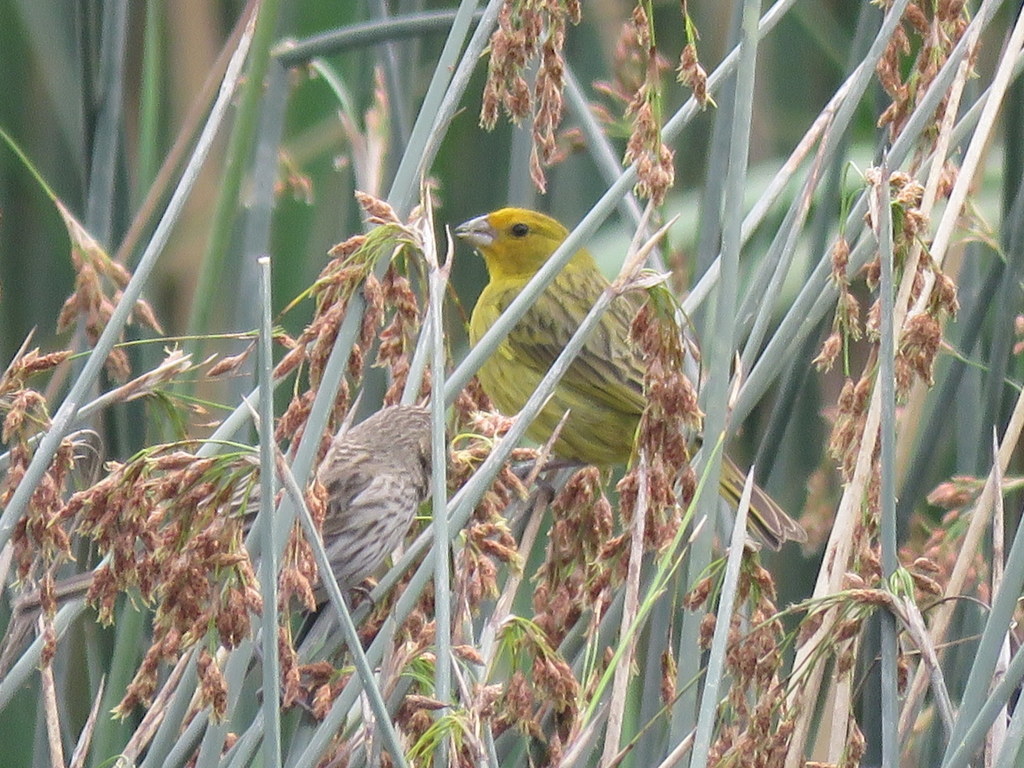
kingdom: Animalia
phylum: Chordata
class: Aves
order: Passeriformes
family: Thraupidae
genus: Sicalis
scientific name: Sicalis flaveola
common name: Saffron finch
